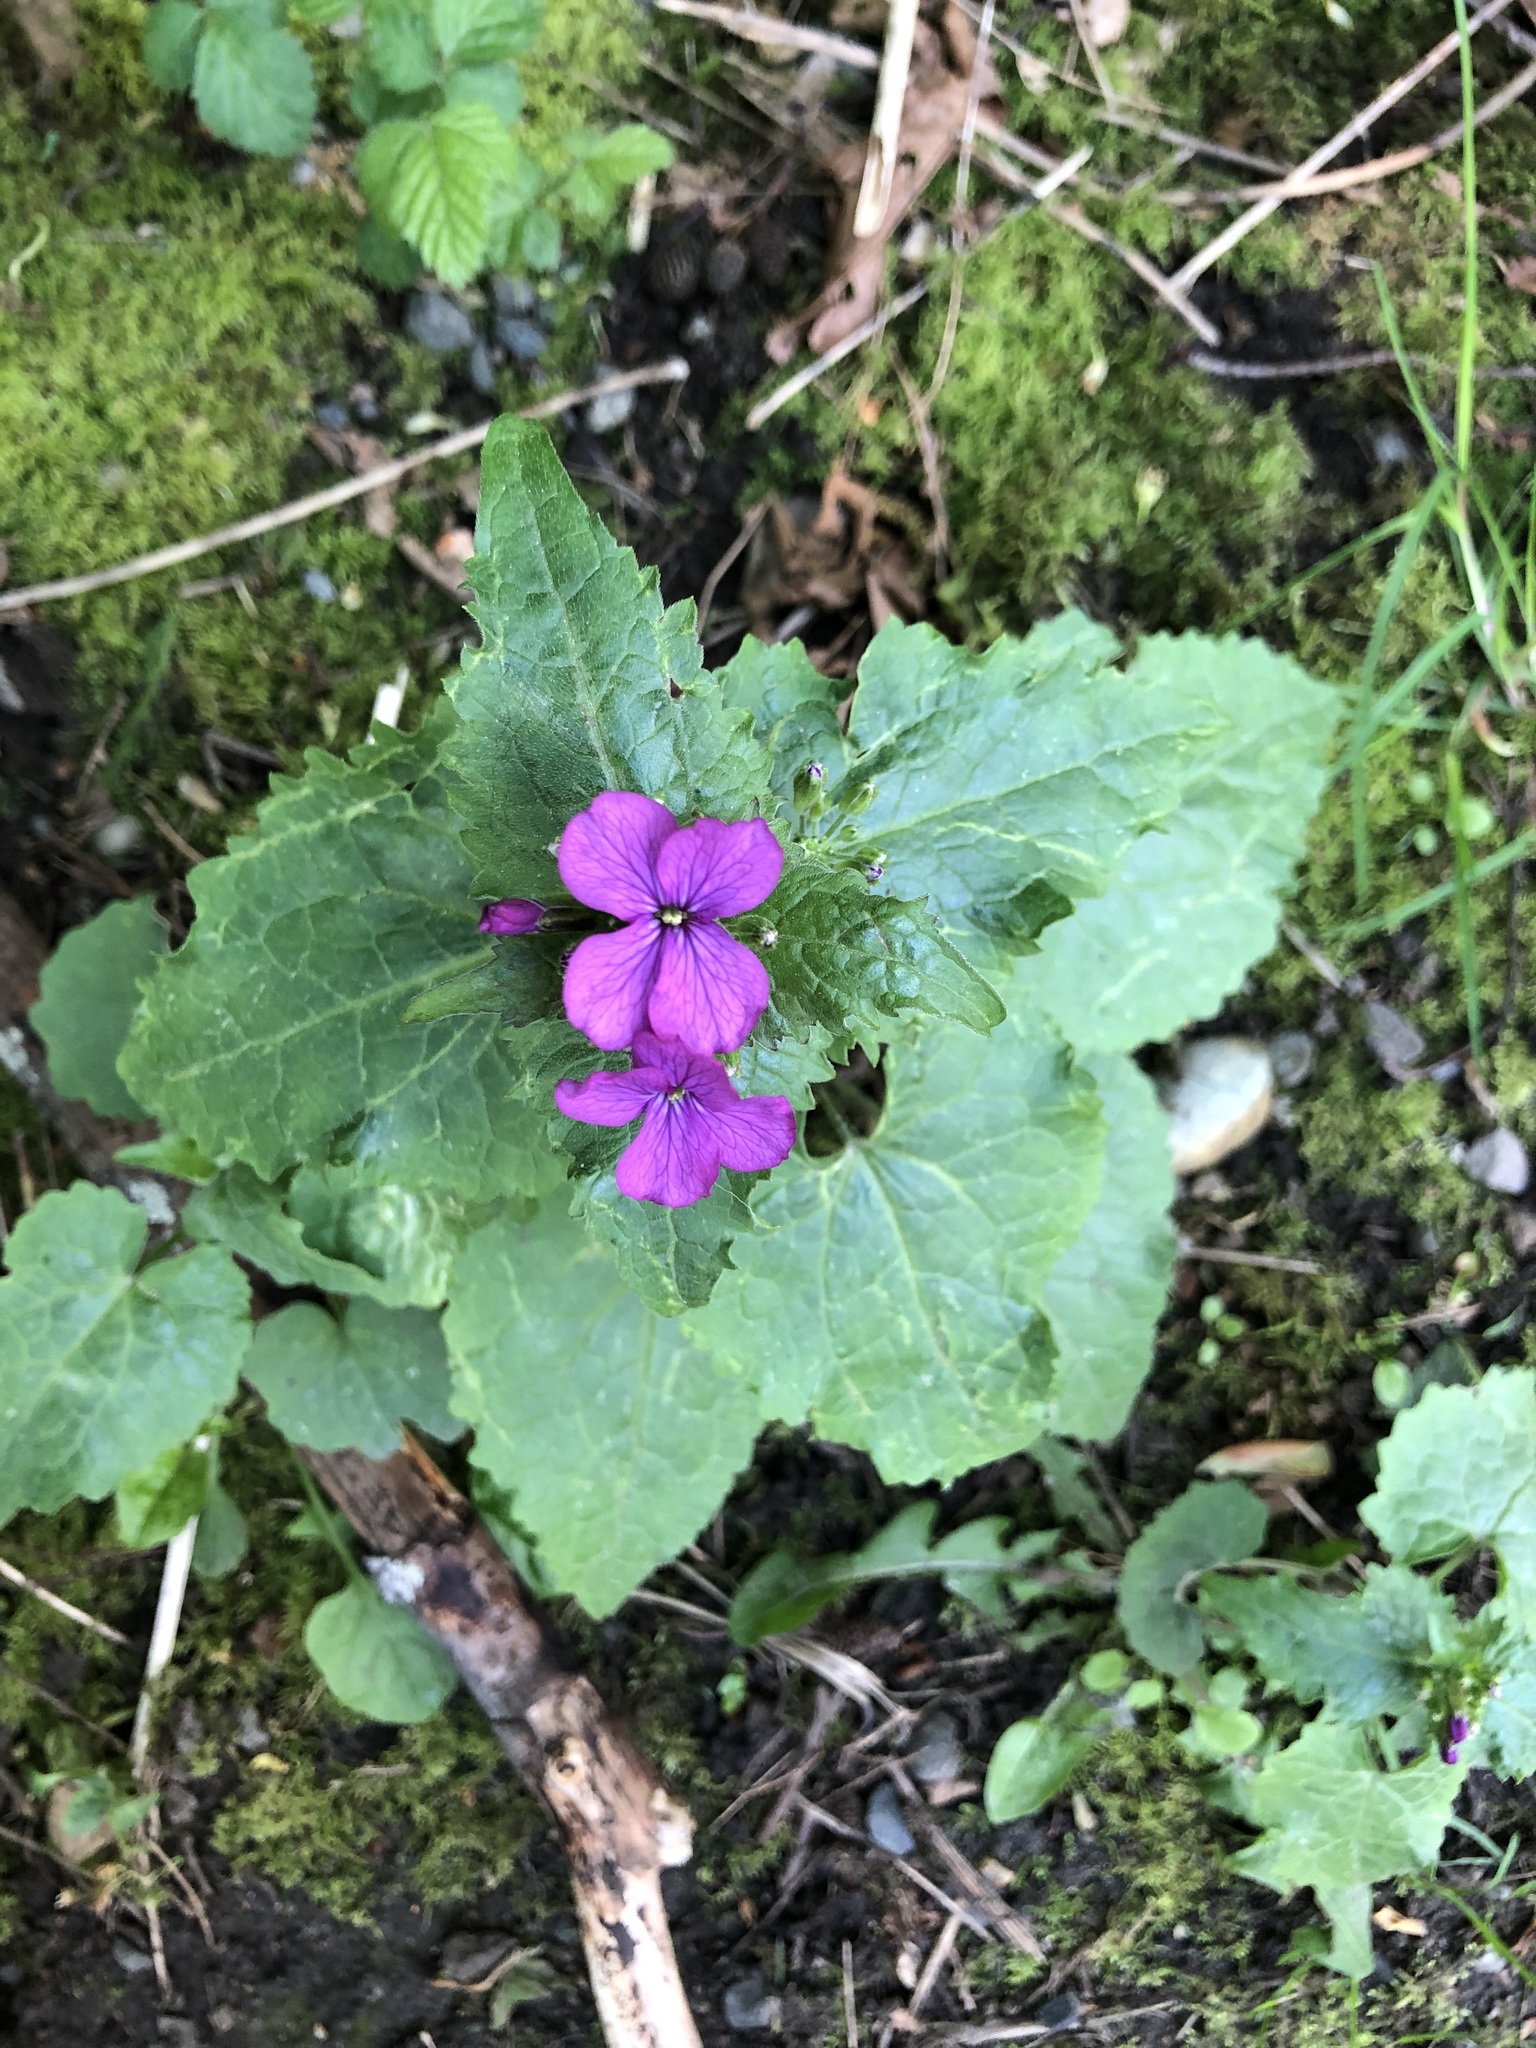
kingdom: Plantae
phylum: Tracheophyta
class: Magnoliopsida
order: Brassicales
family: Brassicaceae
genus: Lunaria
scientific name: Lunaria annua
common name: Honesty
